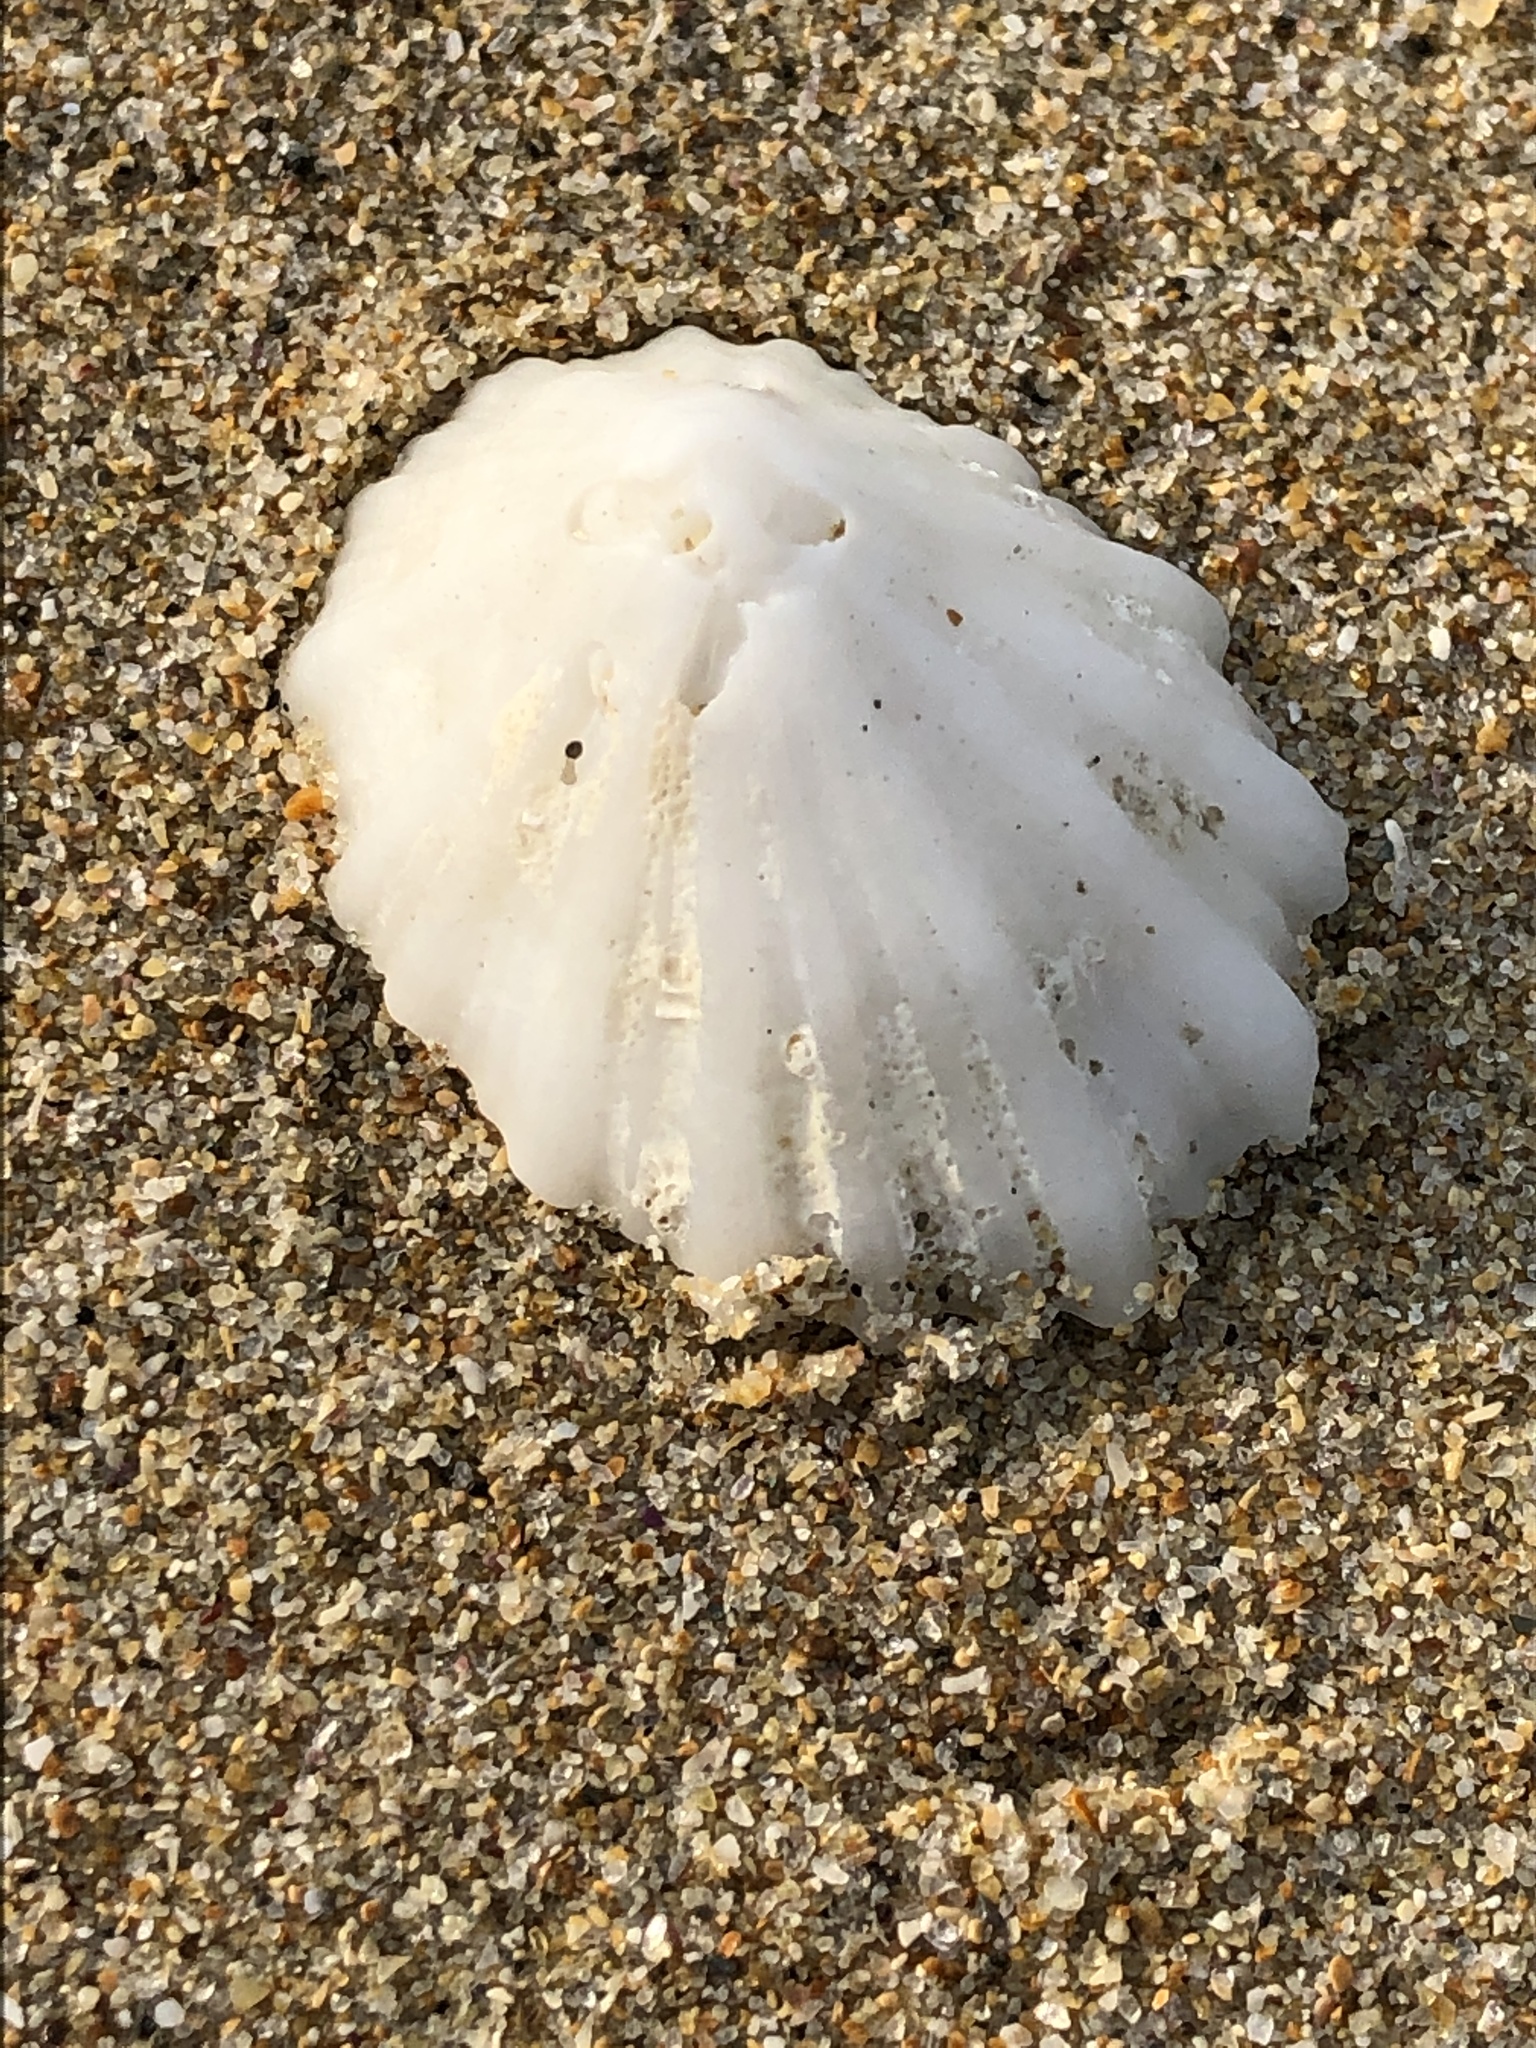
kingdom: Animalia
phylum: Mollusca
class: Gastropoda
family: Lottiidae
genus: Niveotectura
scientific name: Niveotectura pallida
